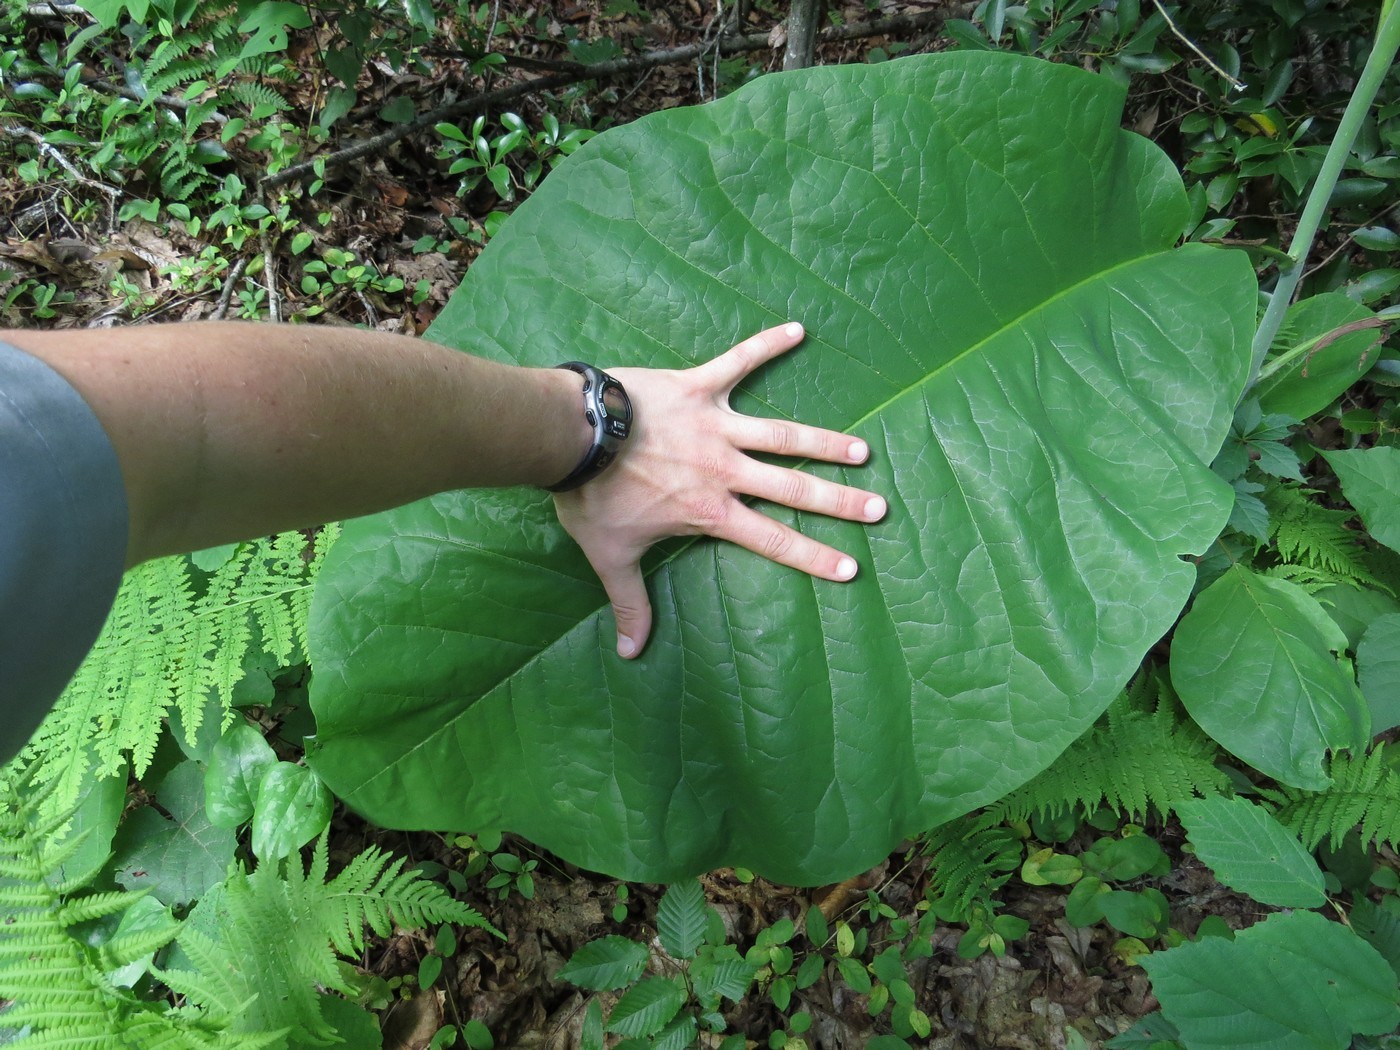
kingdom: Plantae
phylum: Tracheophyta
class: Magnoliopsida
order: Magnoliales
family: Magnoliaceae
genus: Magnolia
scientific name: Magnolia macrophylla
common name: Big-leaf magnolia
